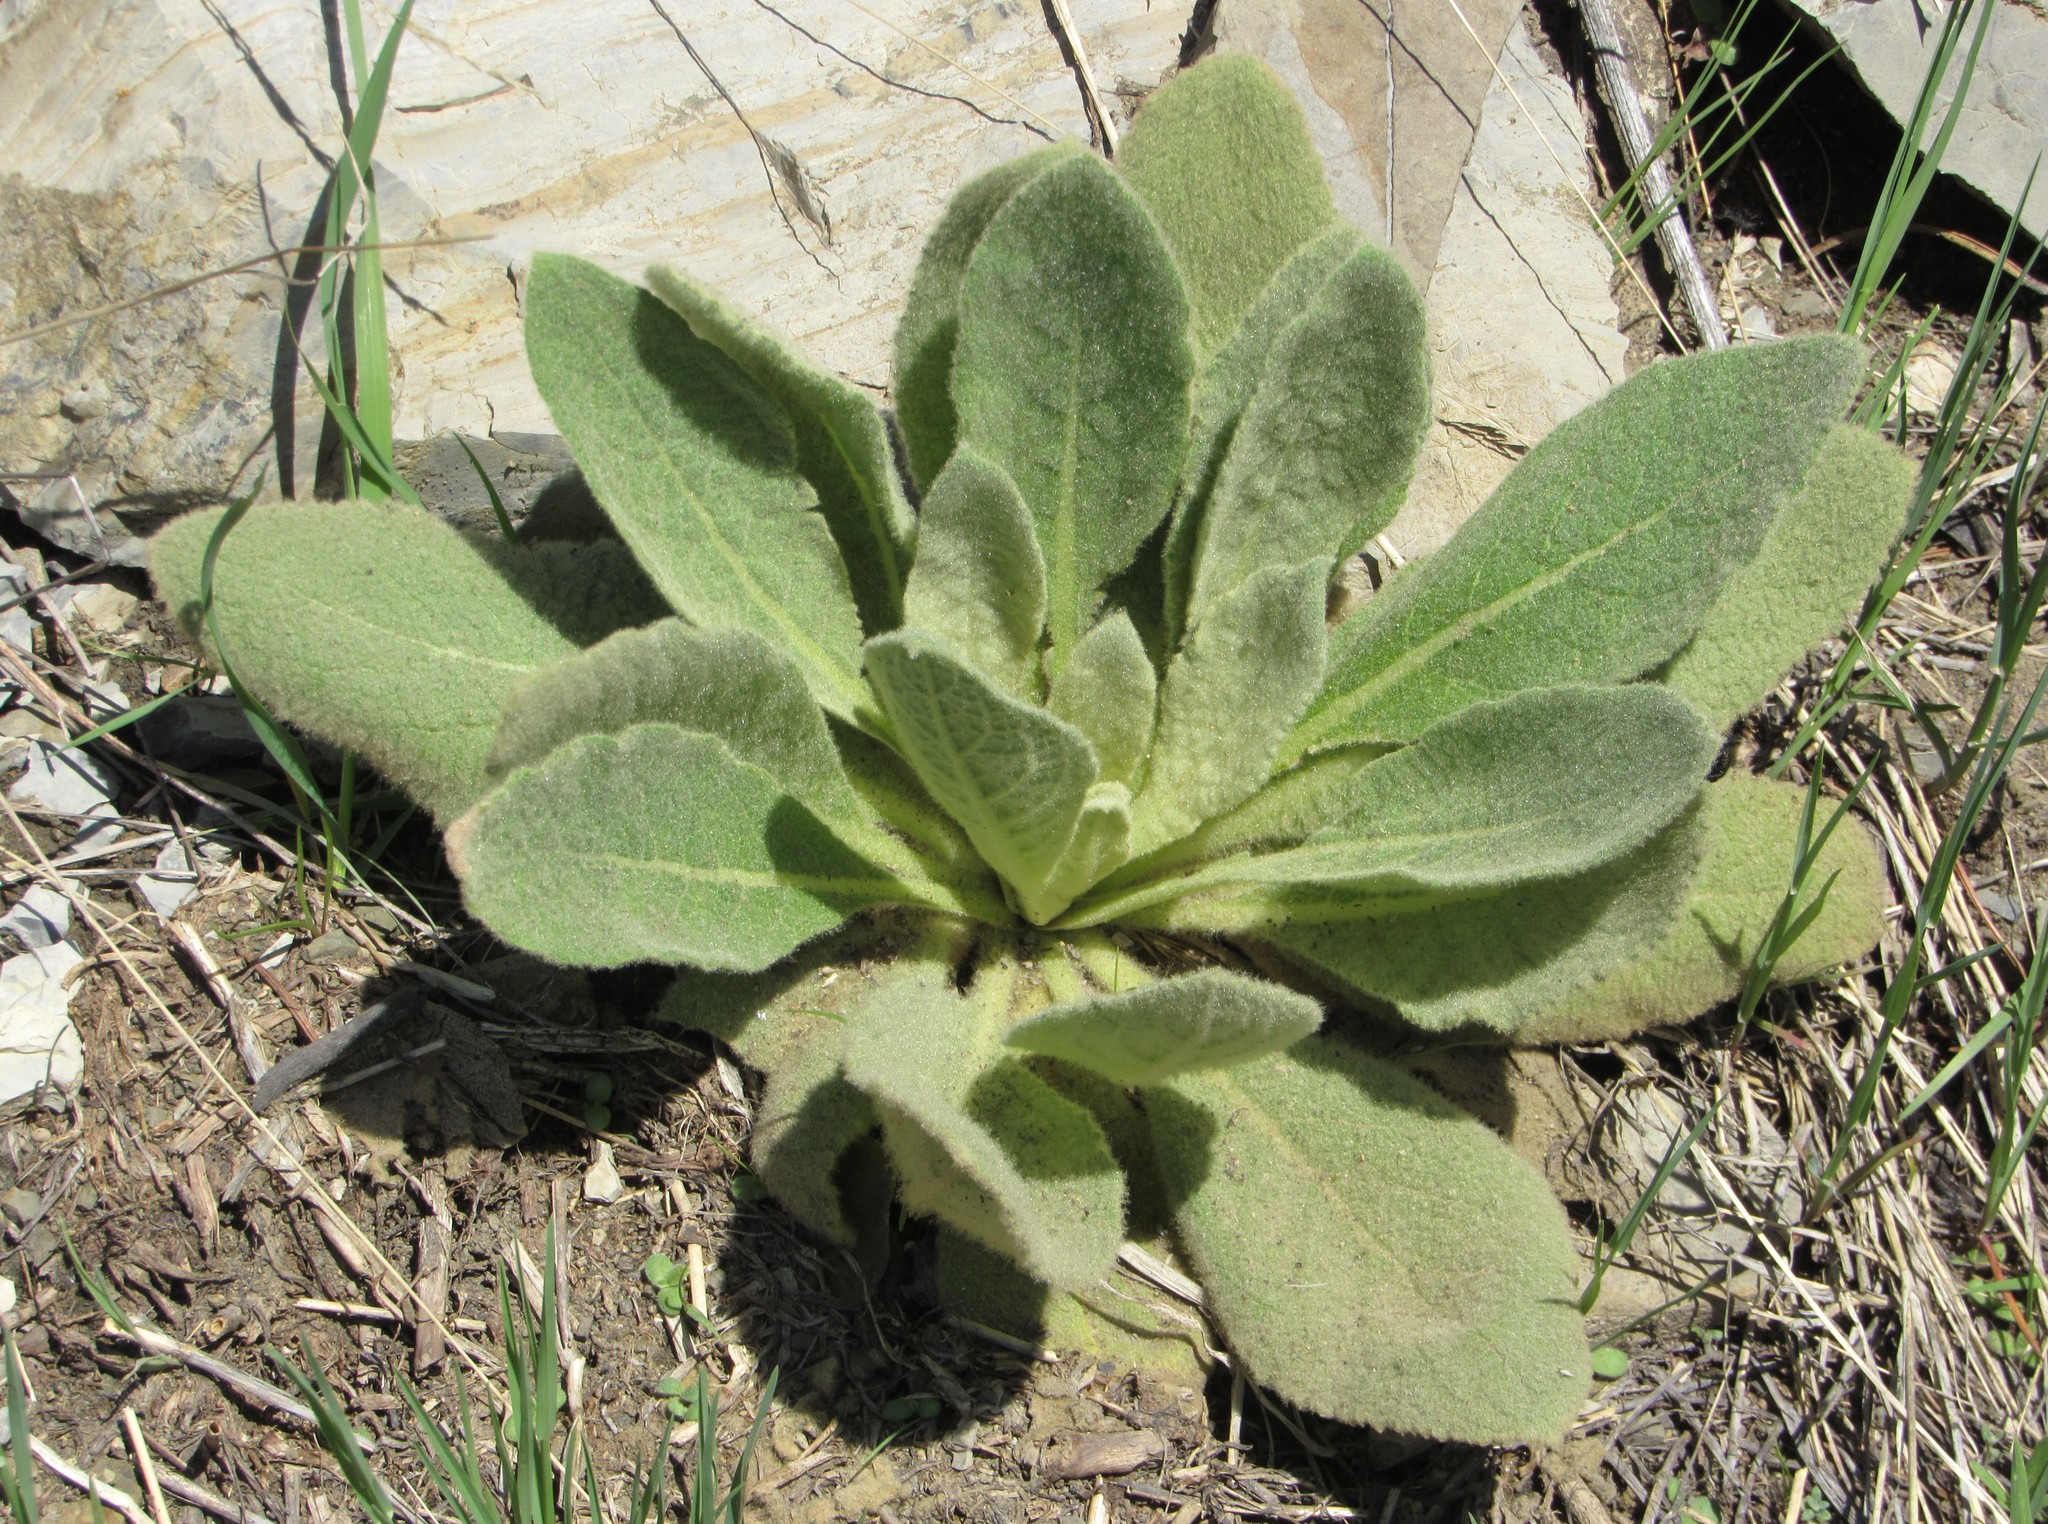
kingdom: Plantae
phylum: Tracheophyta
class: Magnoliopsida
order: Lamiales
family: Scrophulariaceae
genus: Verbascum
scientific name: Verbascum thapsus
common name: Common mullein
